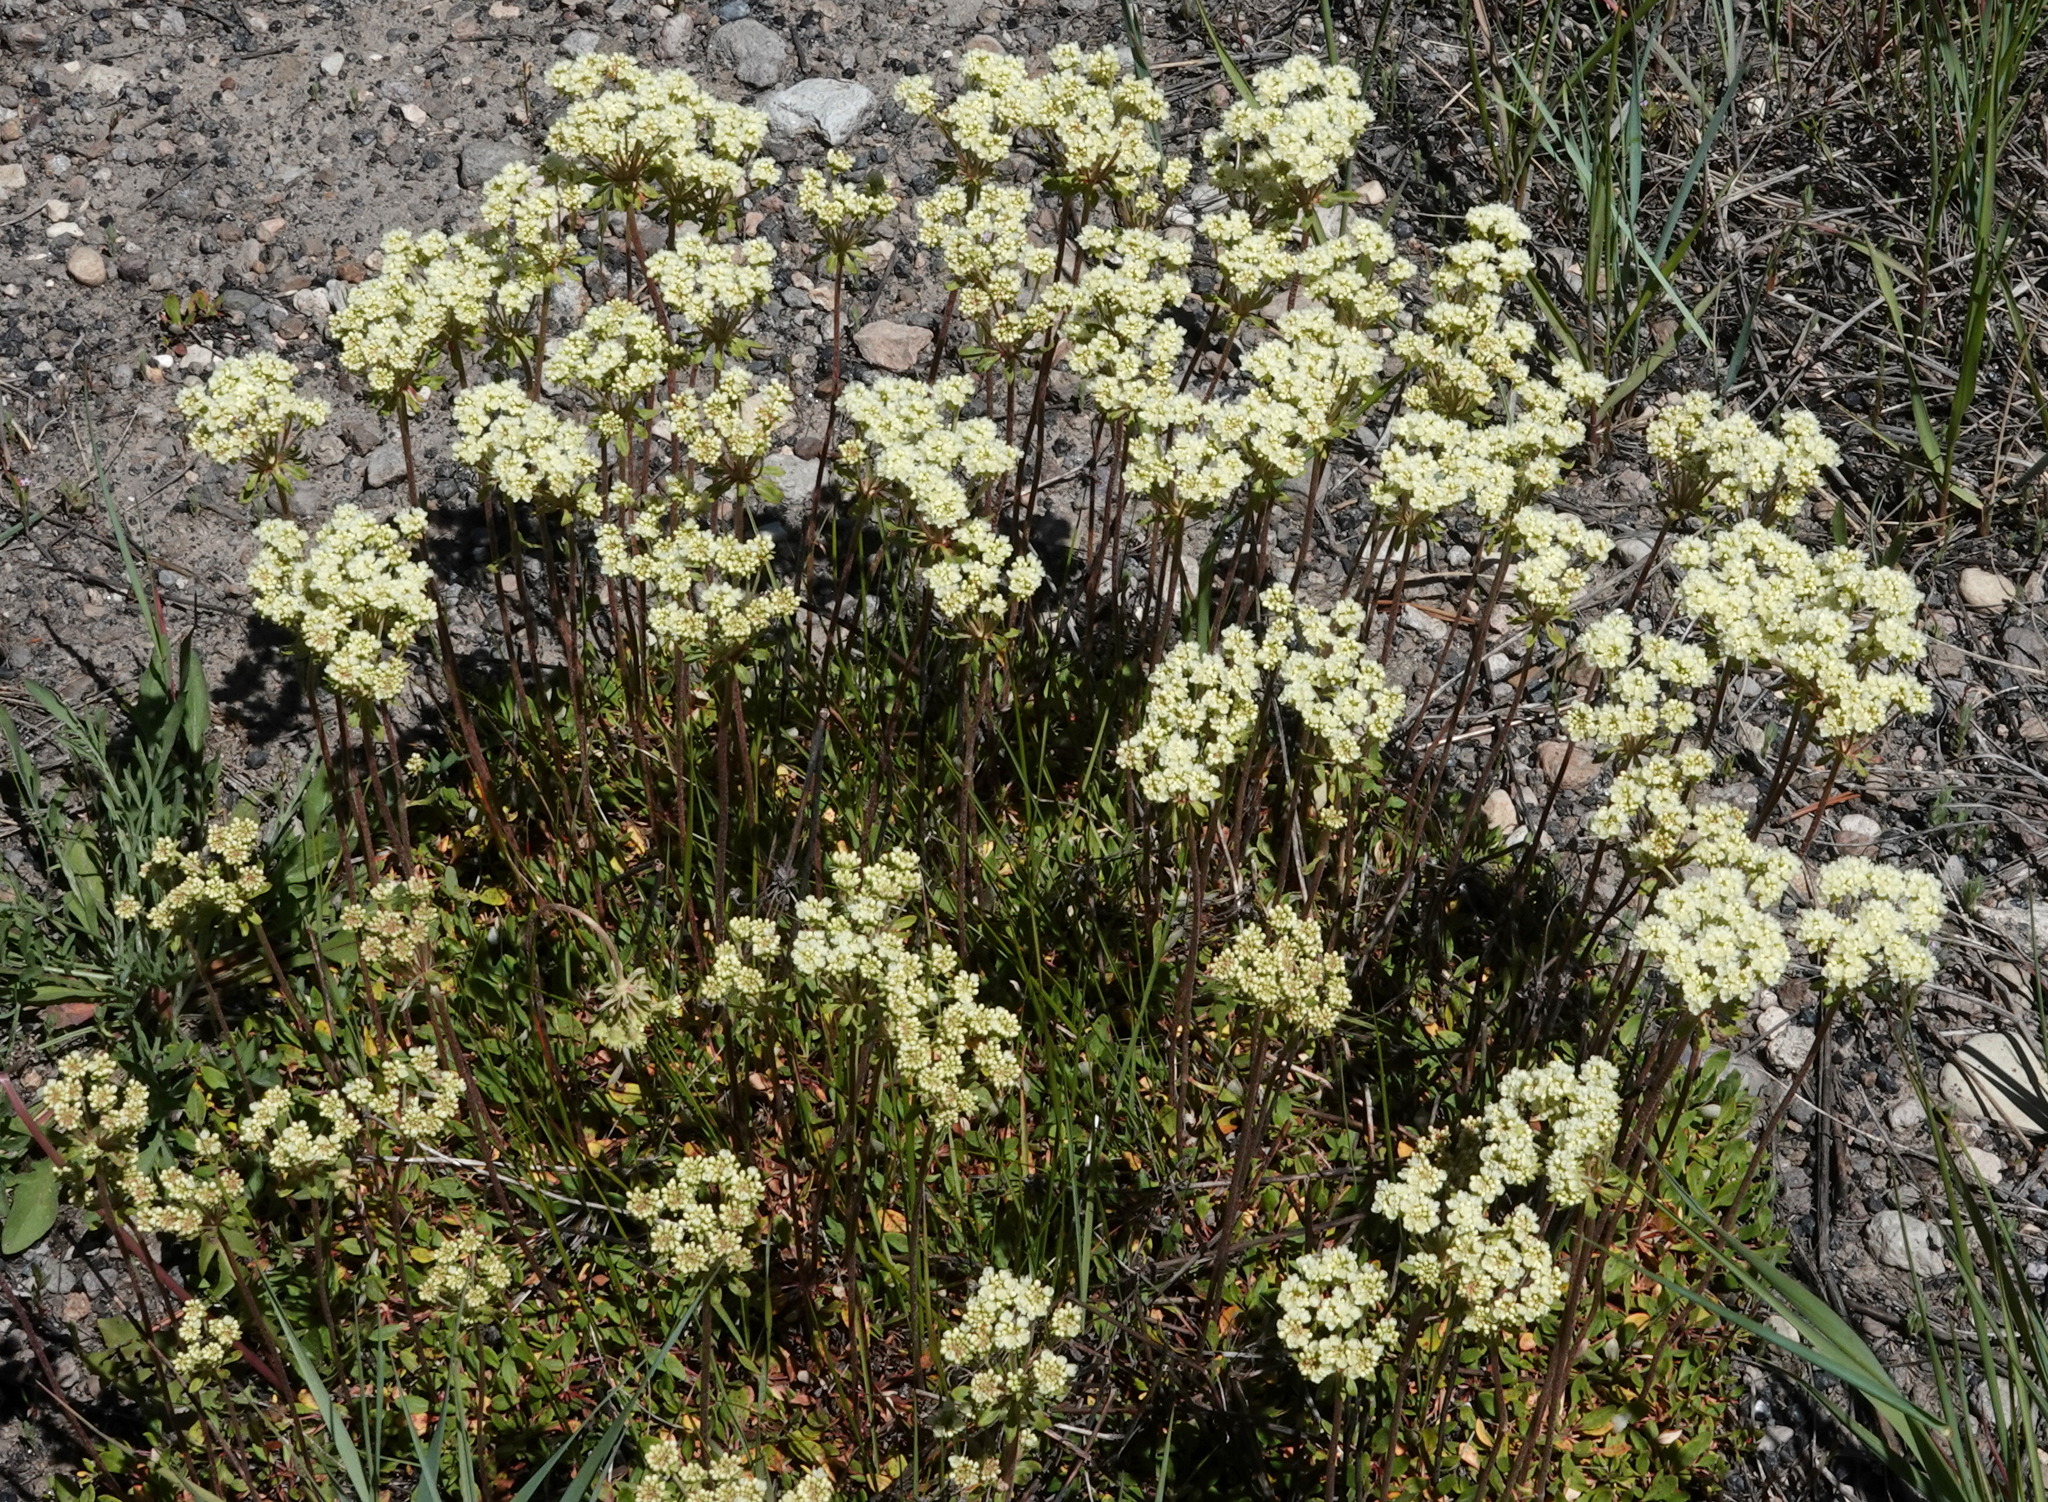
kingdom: Plantae
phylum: Tracheophyta
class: Magnoliopsida
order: Caryophyllales
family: Polygonaceae
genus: Eriogonum
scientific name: Eriogonum umbellatum
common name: Sulfur-buckwheat
